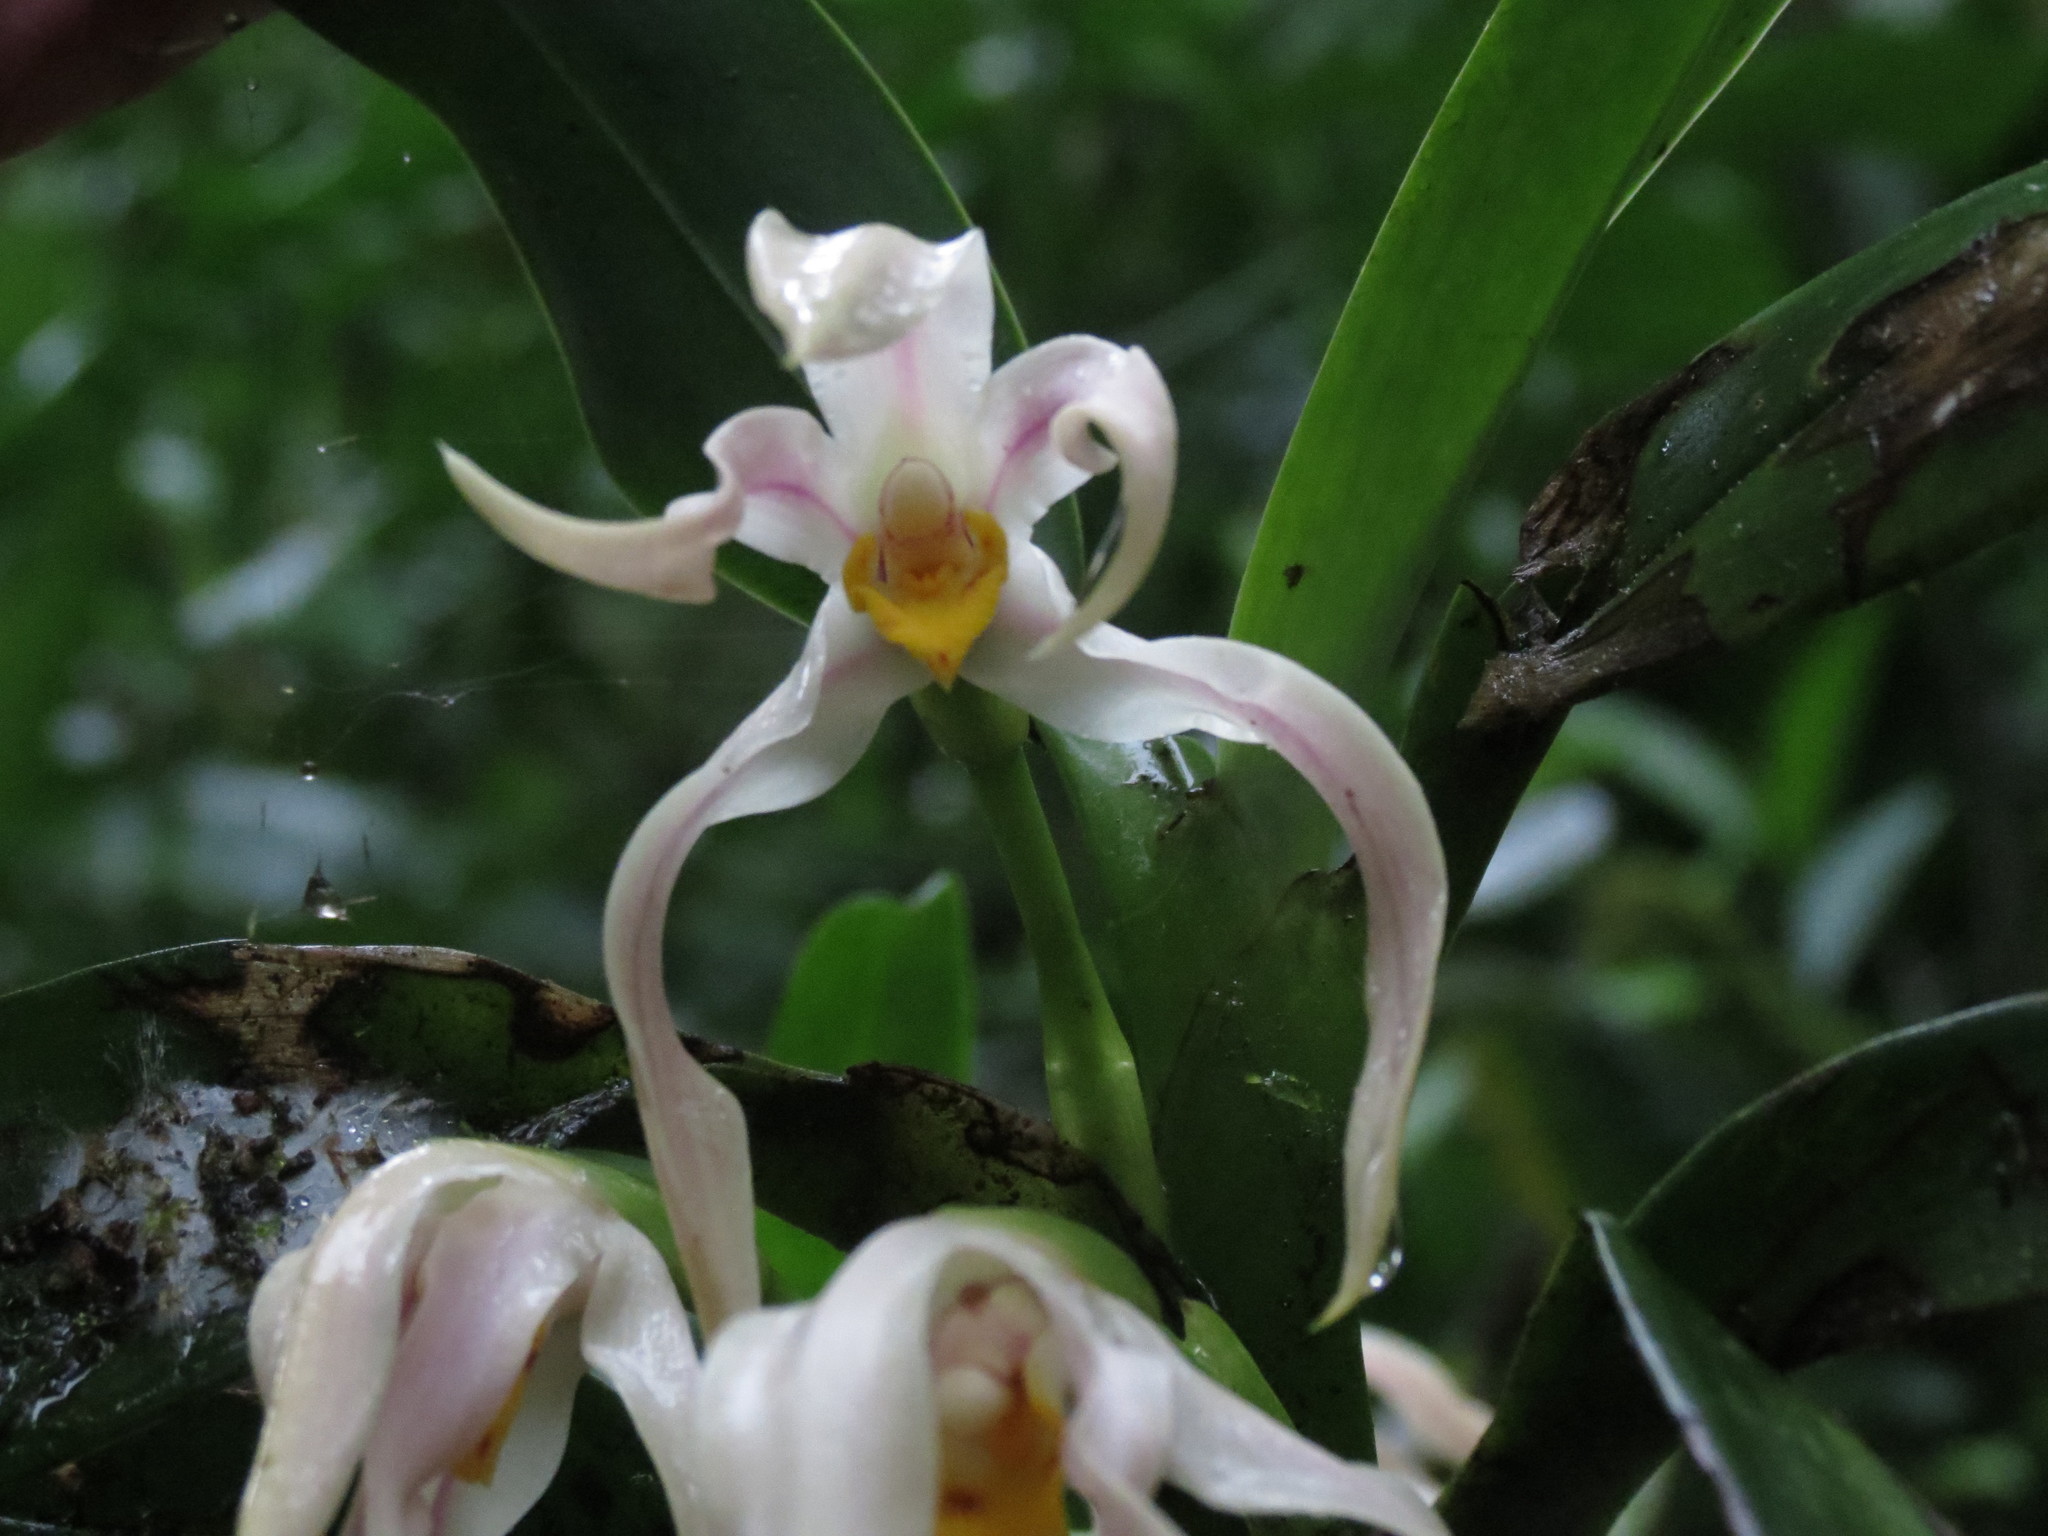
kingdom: Plantae
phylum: Tracheophyta
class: Liliopsida
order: Asparagales
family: Orchidaceae
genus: Maxillaria
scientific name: Maxillaria inaudita
